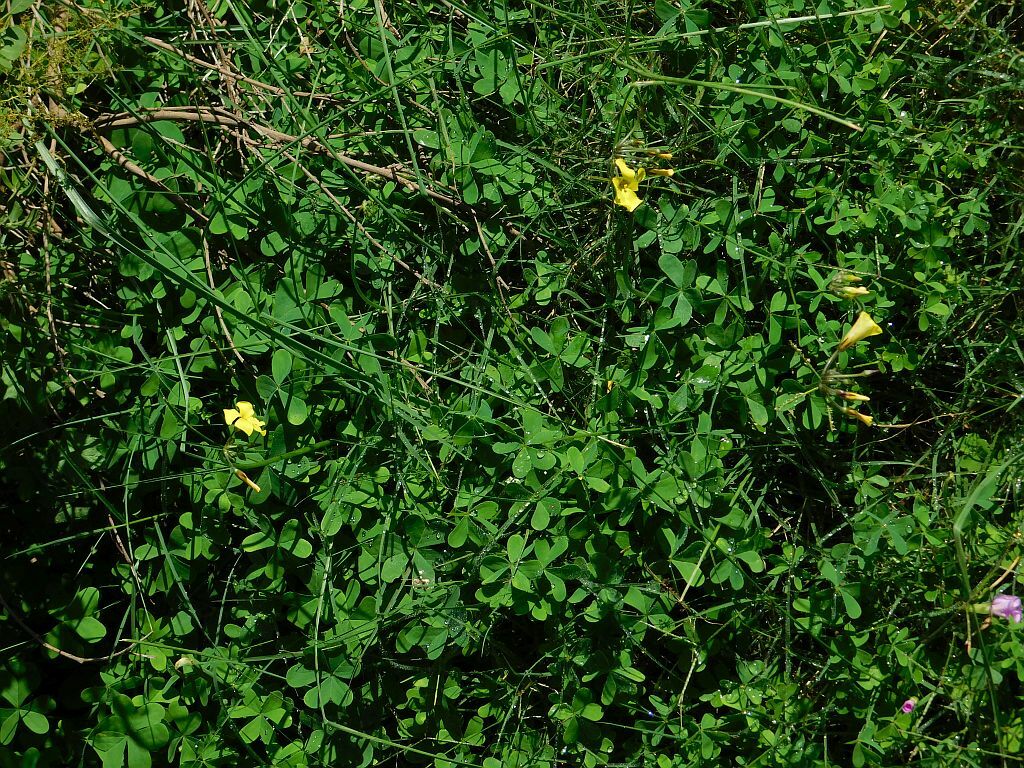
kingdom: Plantae
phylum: Tracheophyta
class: Magnoliopsida
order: Oxalidales
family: Oxalidaceae
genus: Oxalis
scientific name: Oxalis pes-caprae
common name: Bermuda-buttercup
